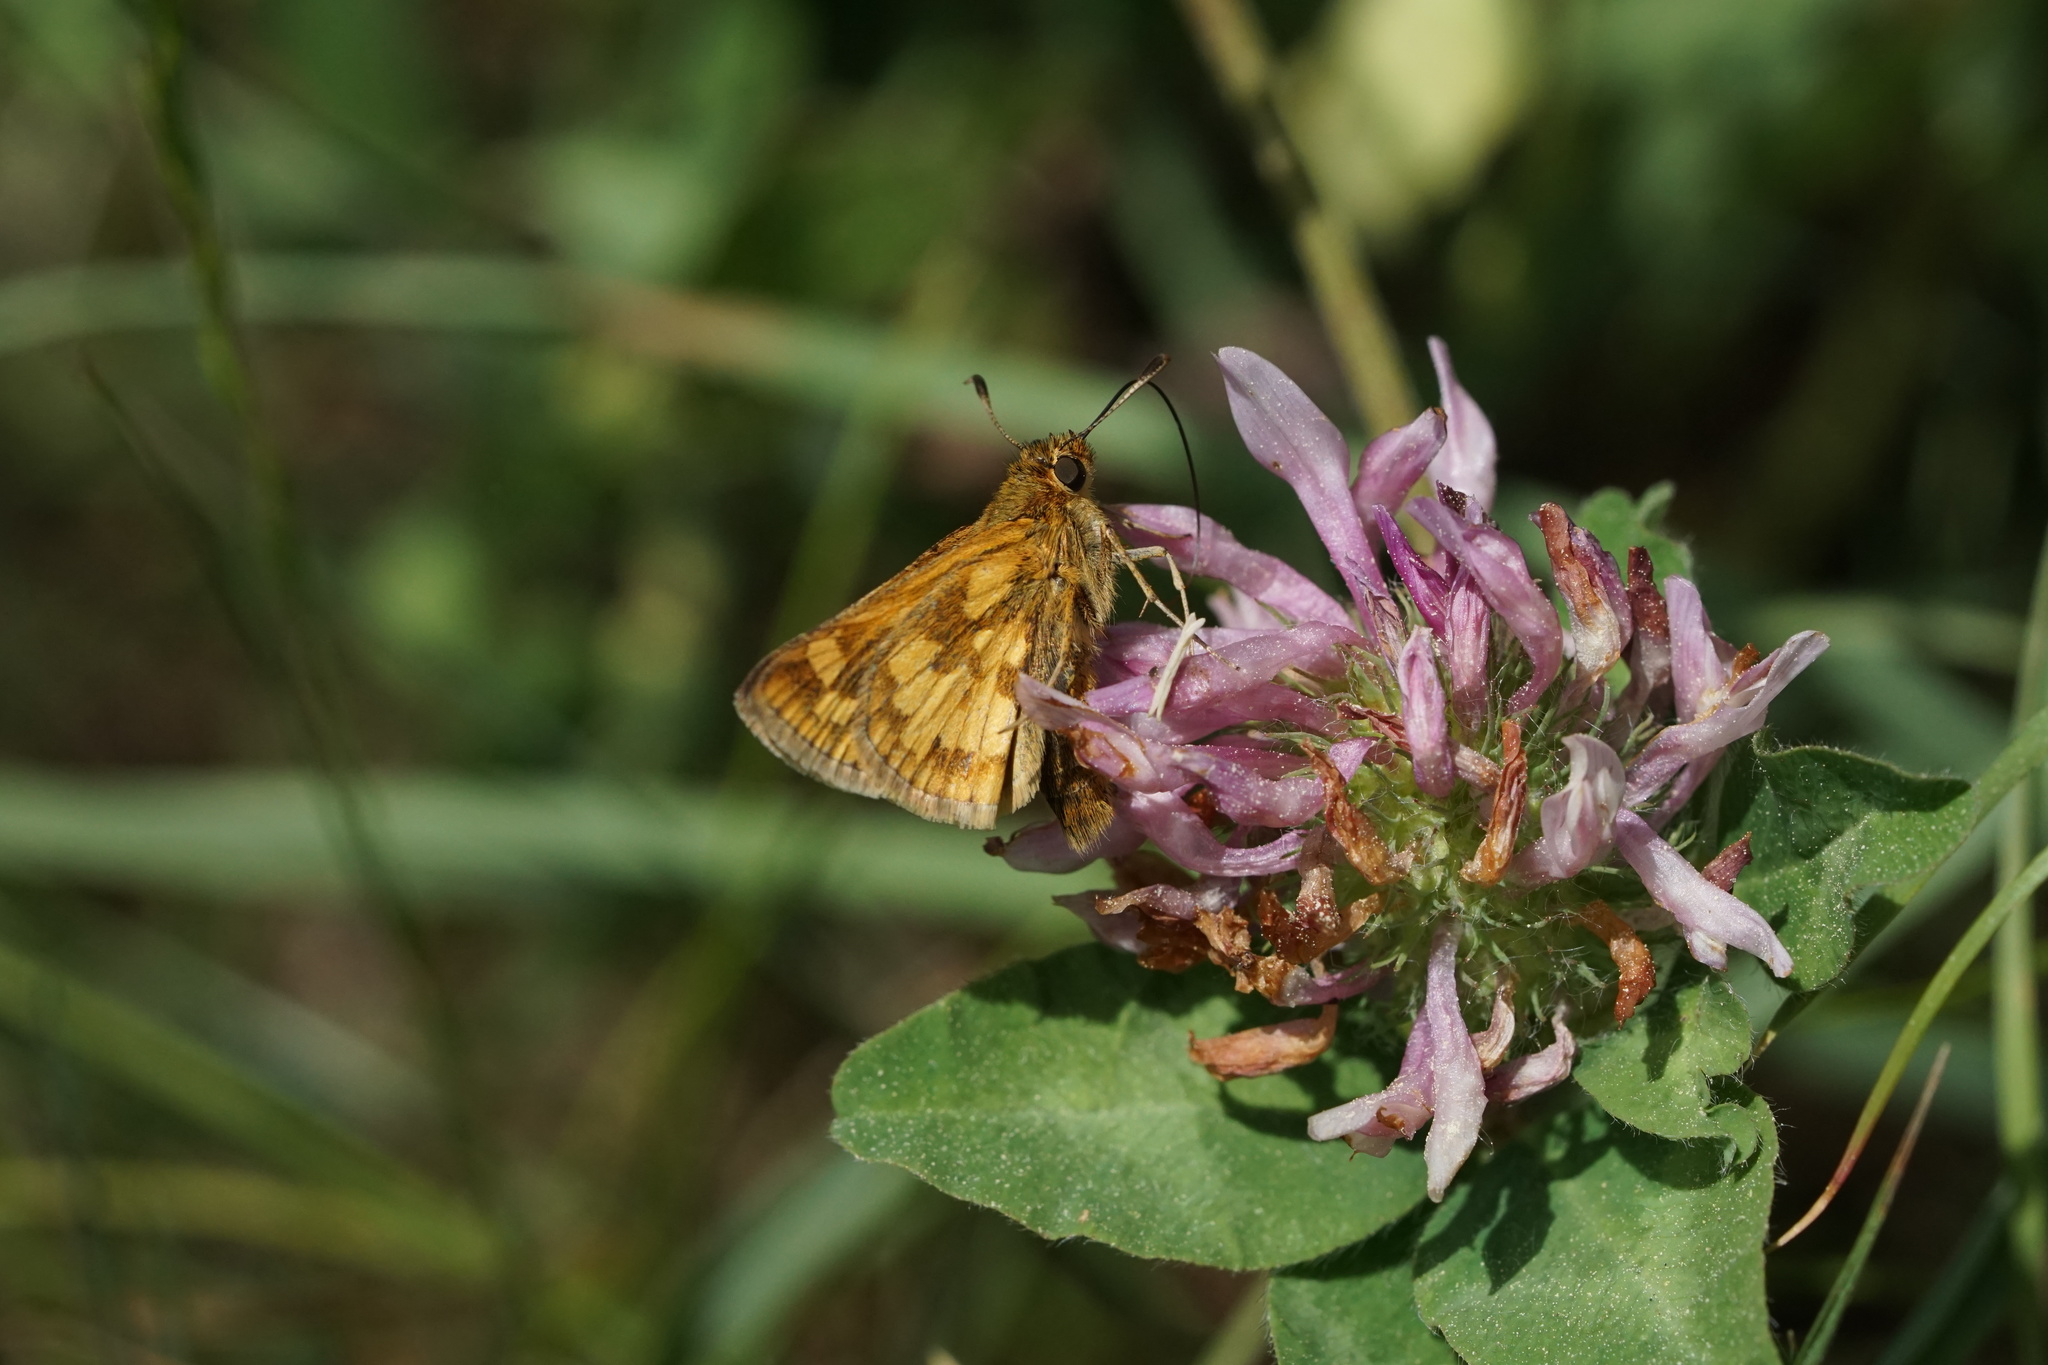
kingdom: Animalia
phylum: Arthropoda
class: Insecta
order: Lepidoptera
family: Hesperiidae
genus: Polites
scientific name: Polites coras
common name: Peck's skipper
